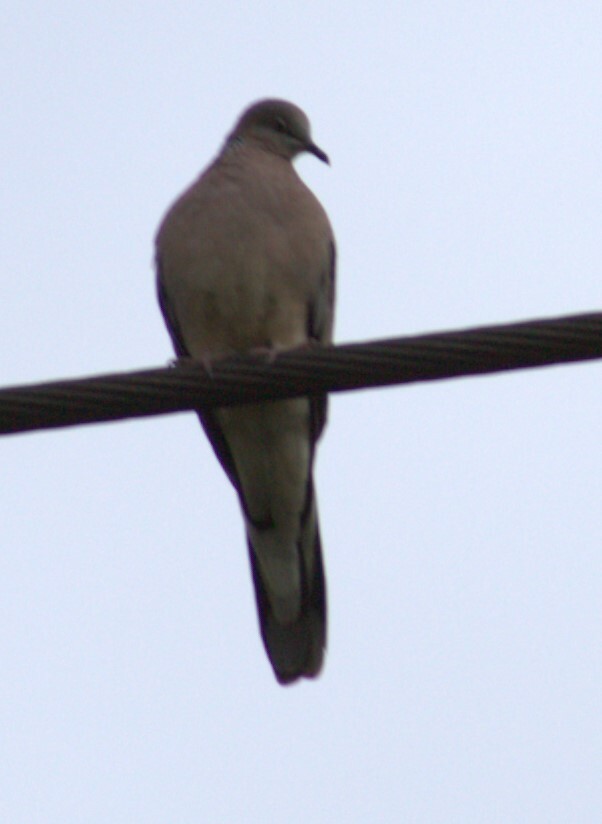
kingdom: Animalia
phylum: Chordata
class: Aves
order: Columbiformes
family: Columbidae
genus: Spilopelia
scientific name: Spilopelia chinensis
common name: Spotted dove
